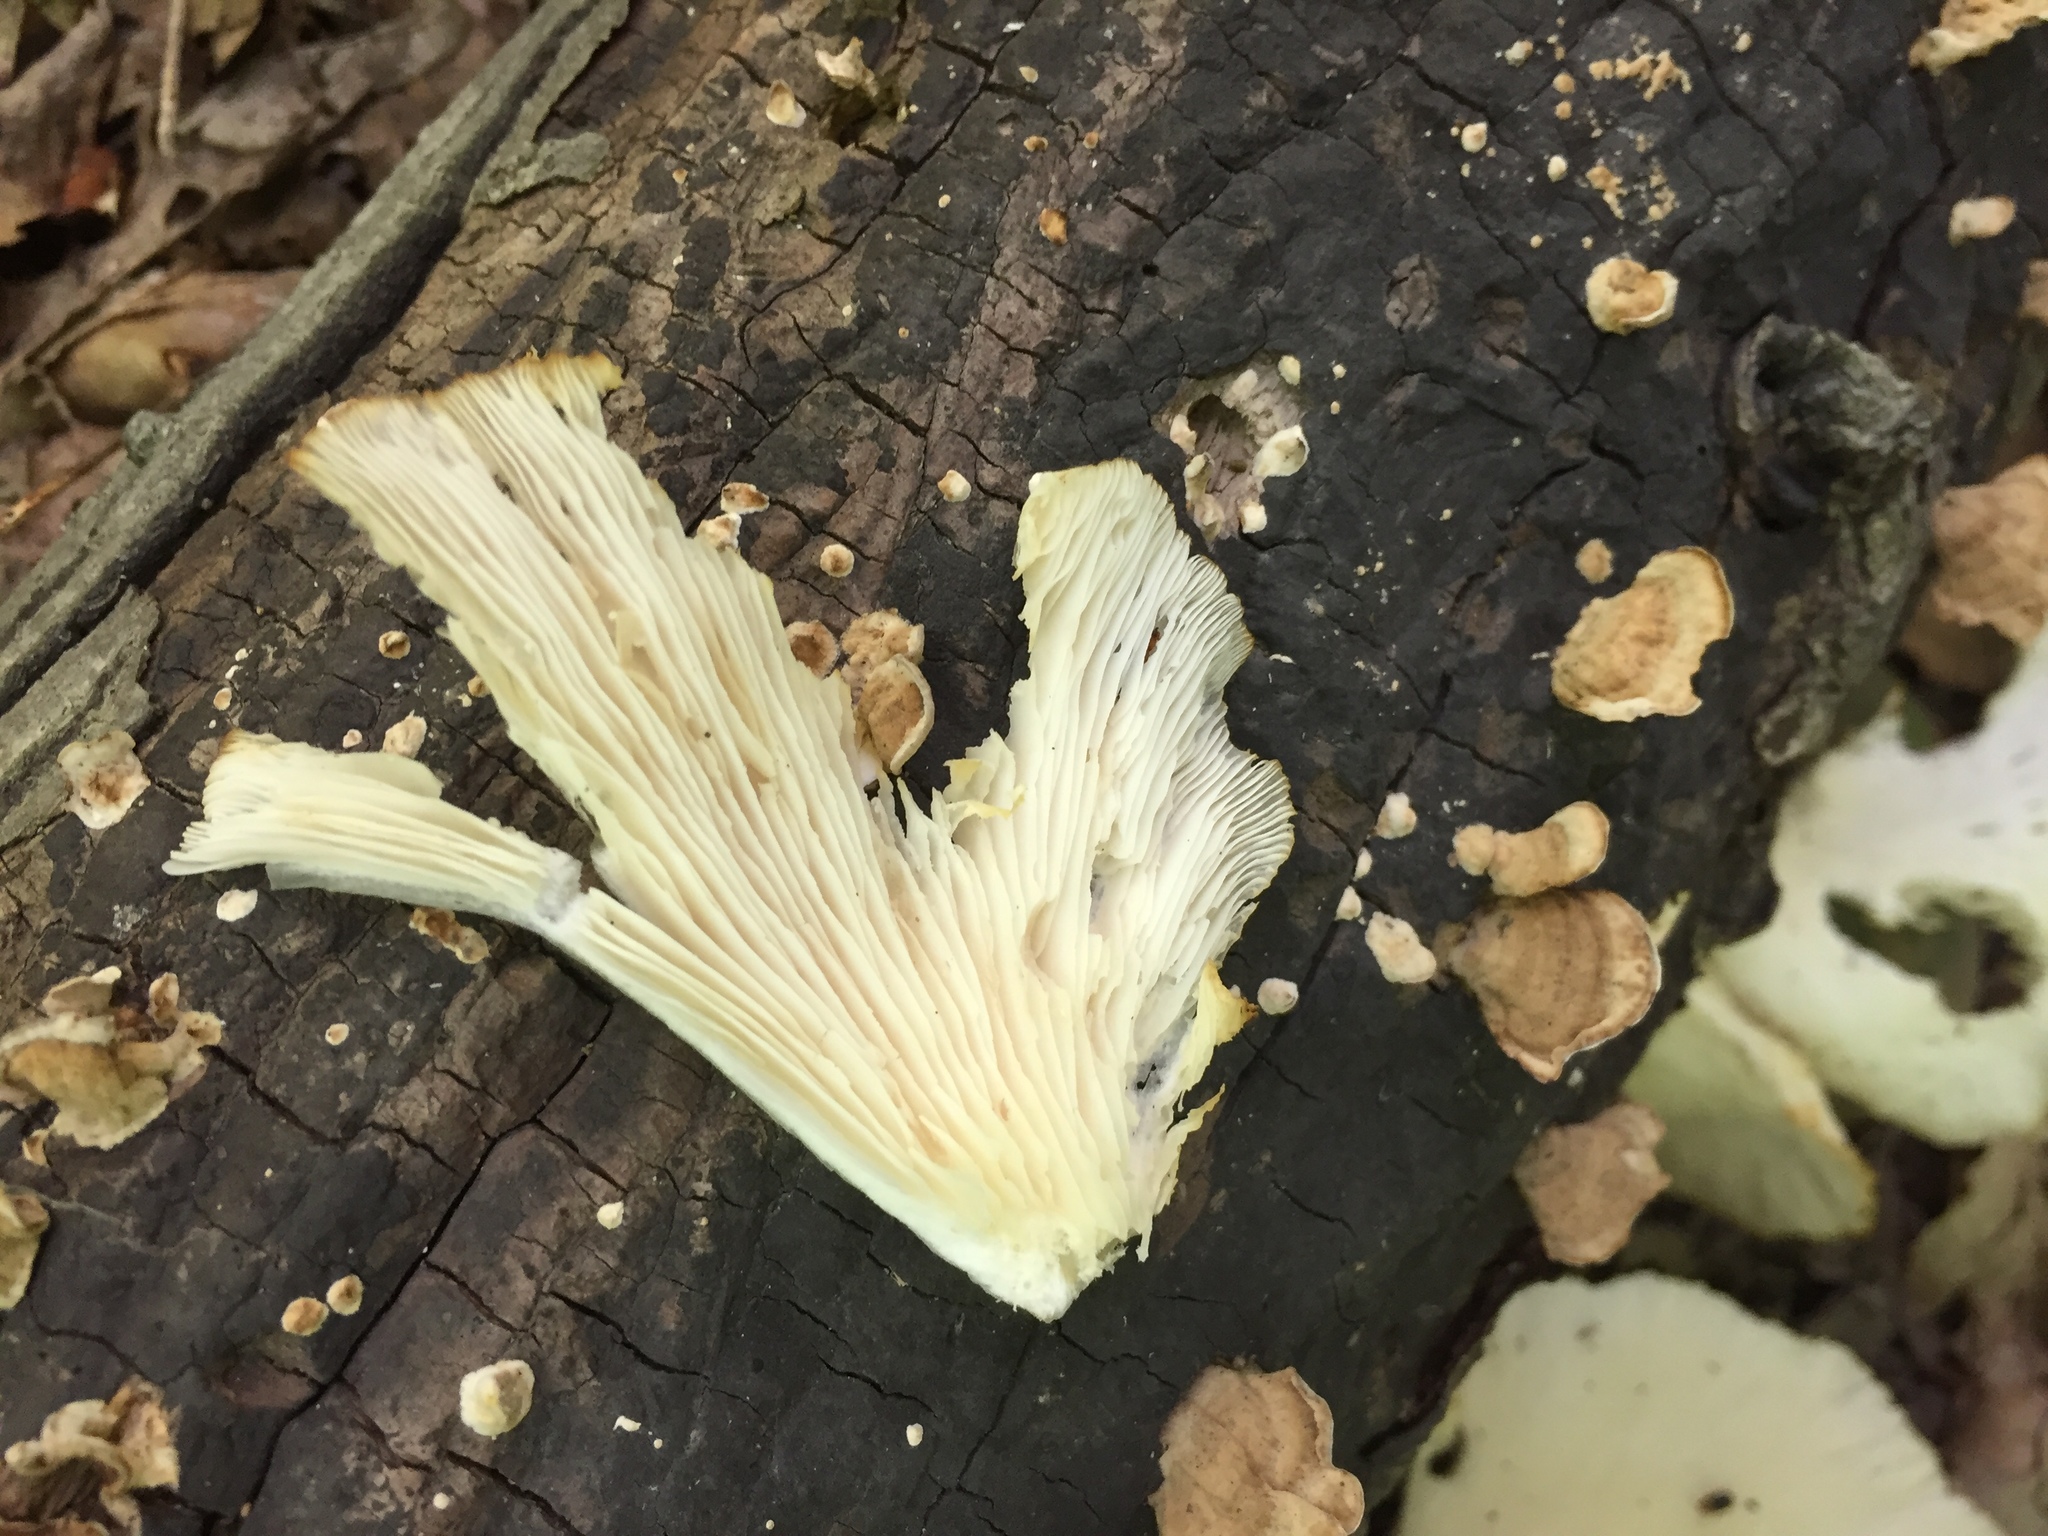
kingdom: Fungi
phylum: Basidiomycota
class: Agaricomycetes
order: Agaricales
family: Pleurotaceae
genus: Pleurotus
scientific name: Pleurotus pulmonarius
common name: Pale oyster
